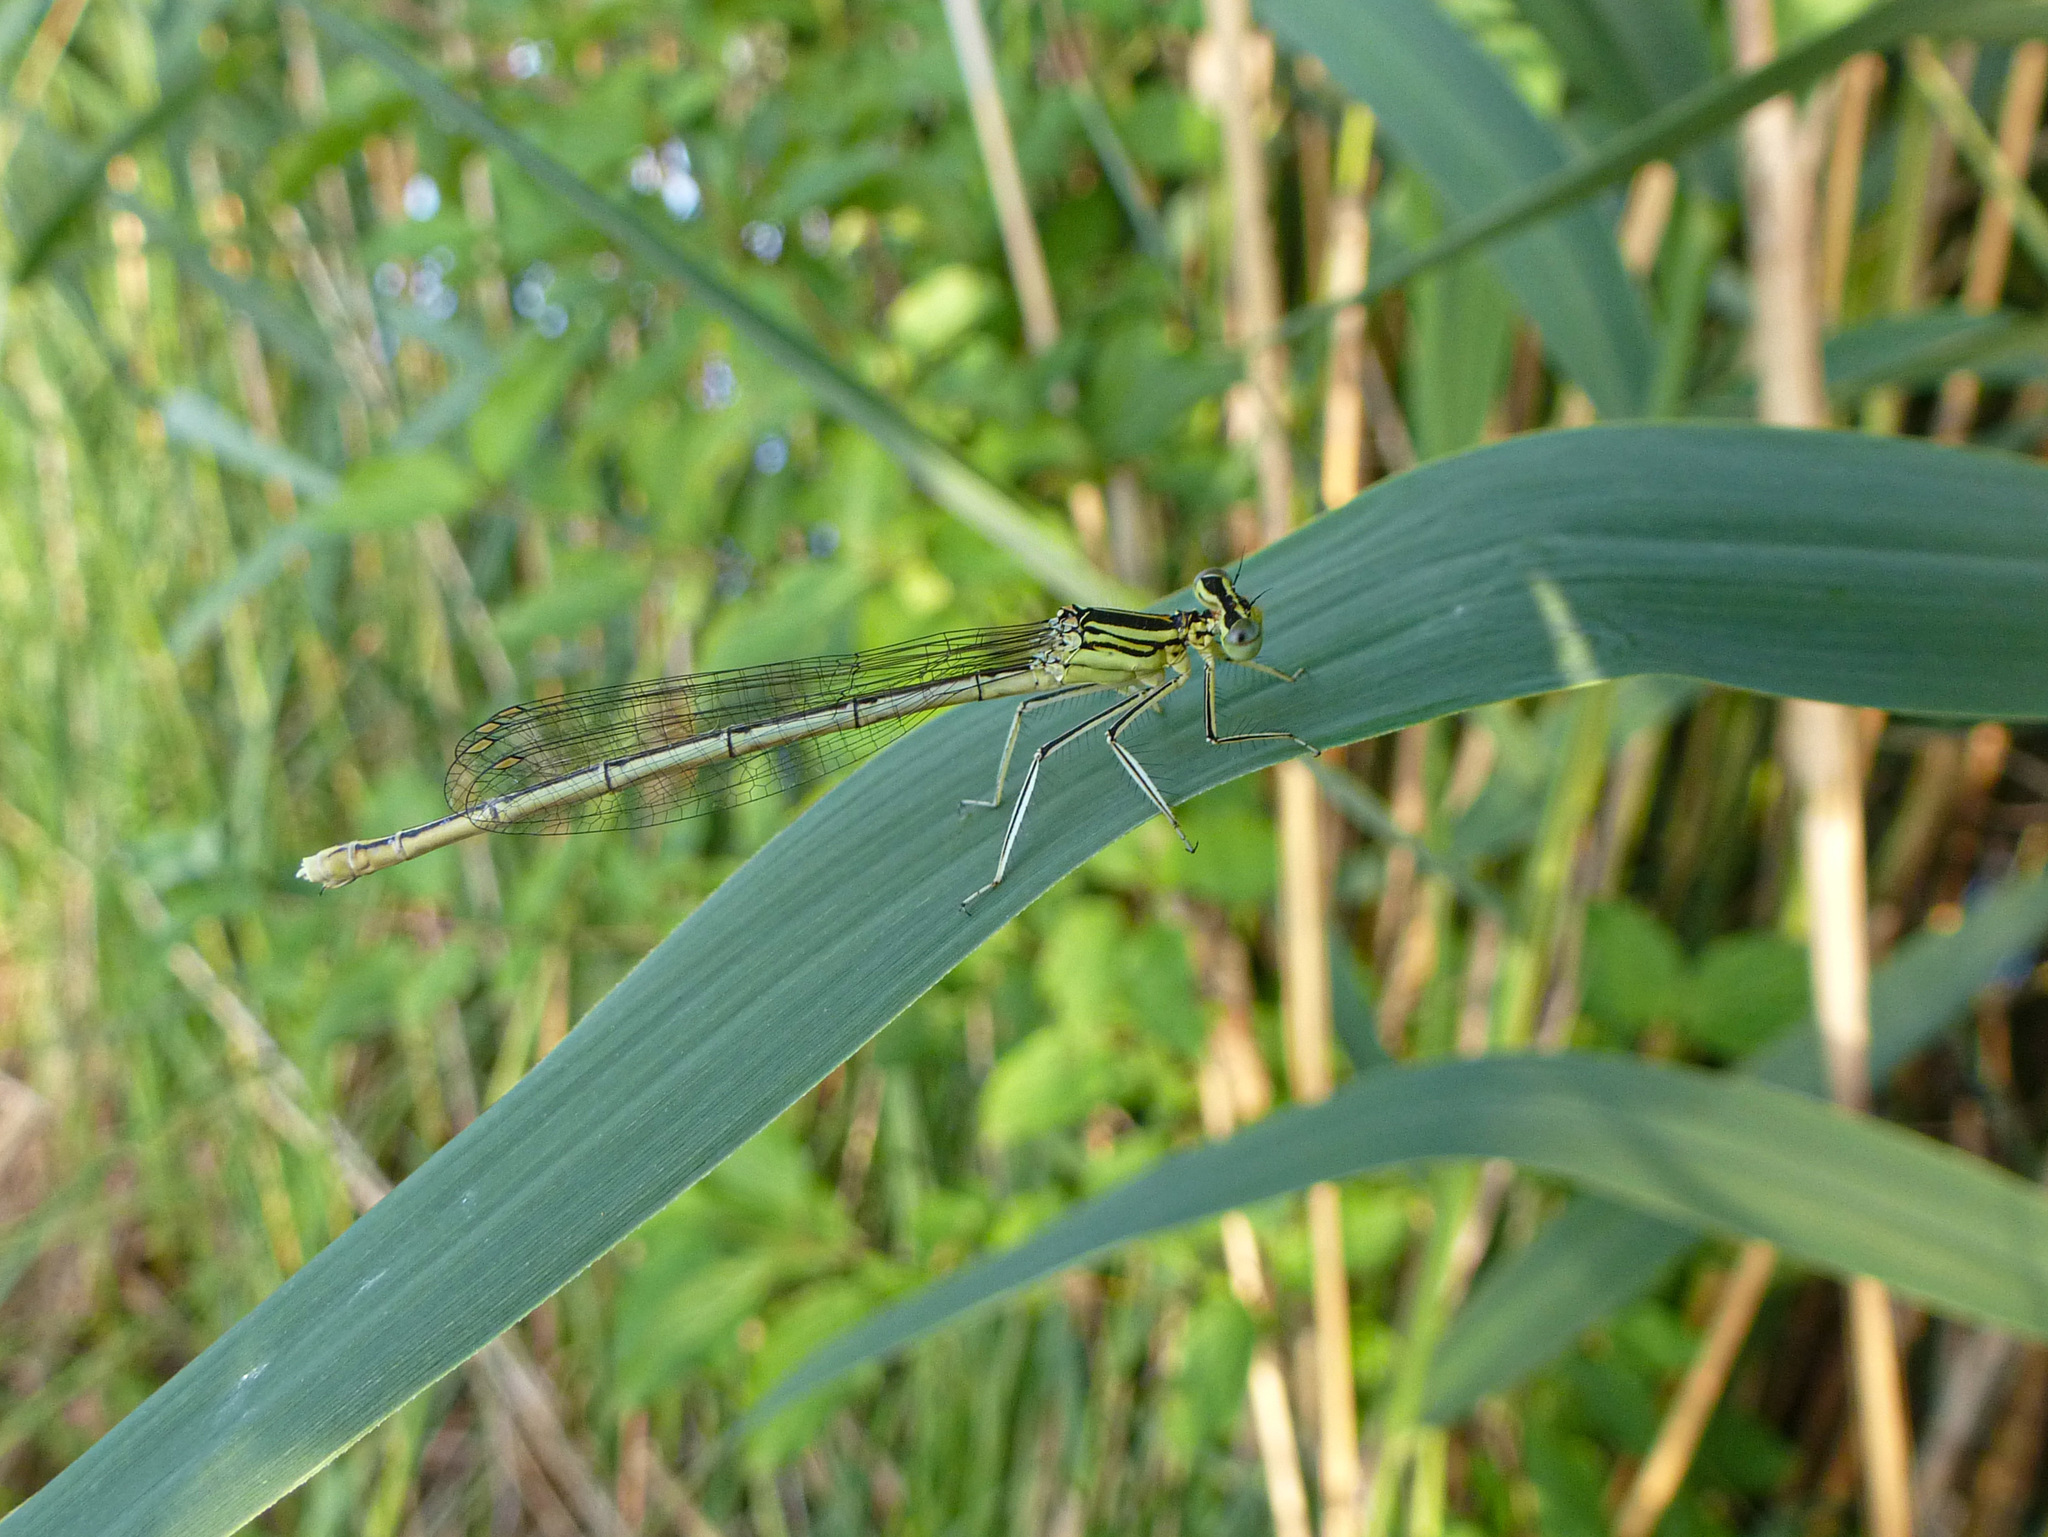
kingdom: Animalia
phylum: Arthropoda
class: Insecta
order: Odonata
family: Platycnemididae
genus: Platycnemis
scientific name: Platycnemis pennipes
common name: White-legged damselfly
